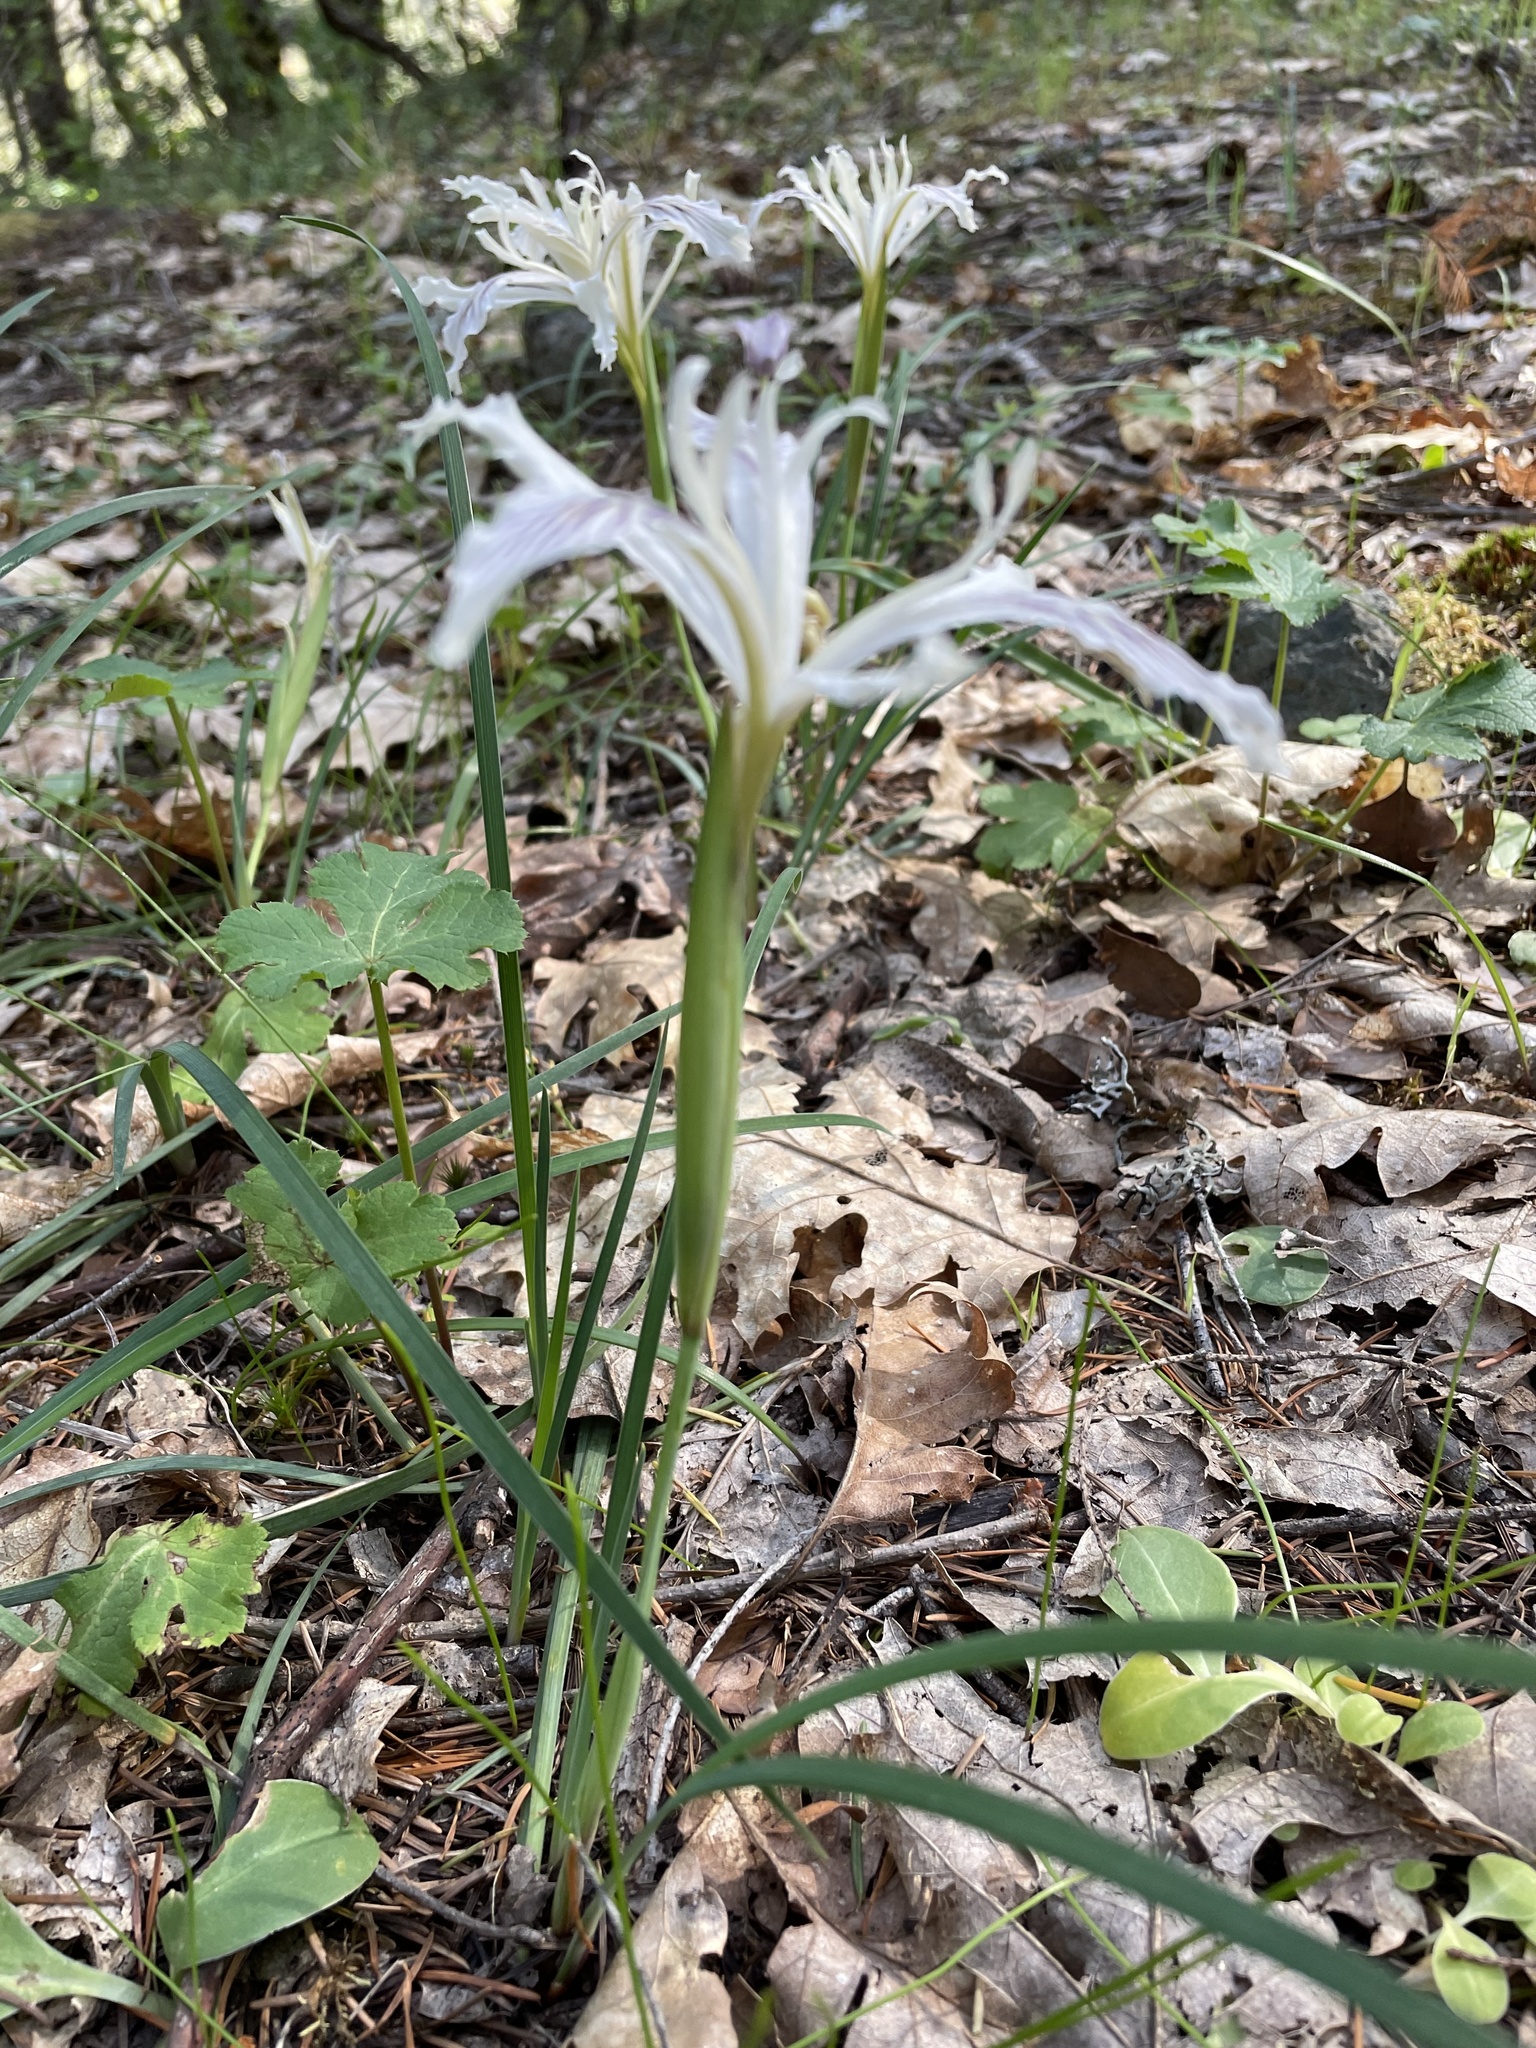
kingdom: Plantae
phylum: Tracheophyta
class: Liliopsida
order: Asparagales
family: Iridaceae
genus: Iris
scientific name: Iris tenuissima
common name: Long-tube iris
